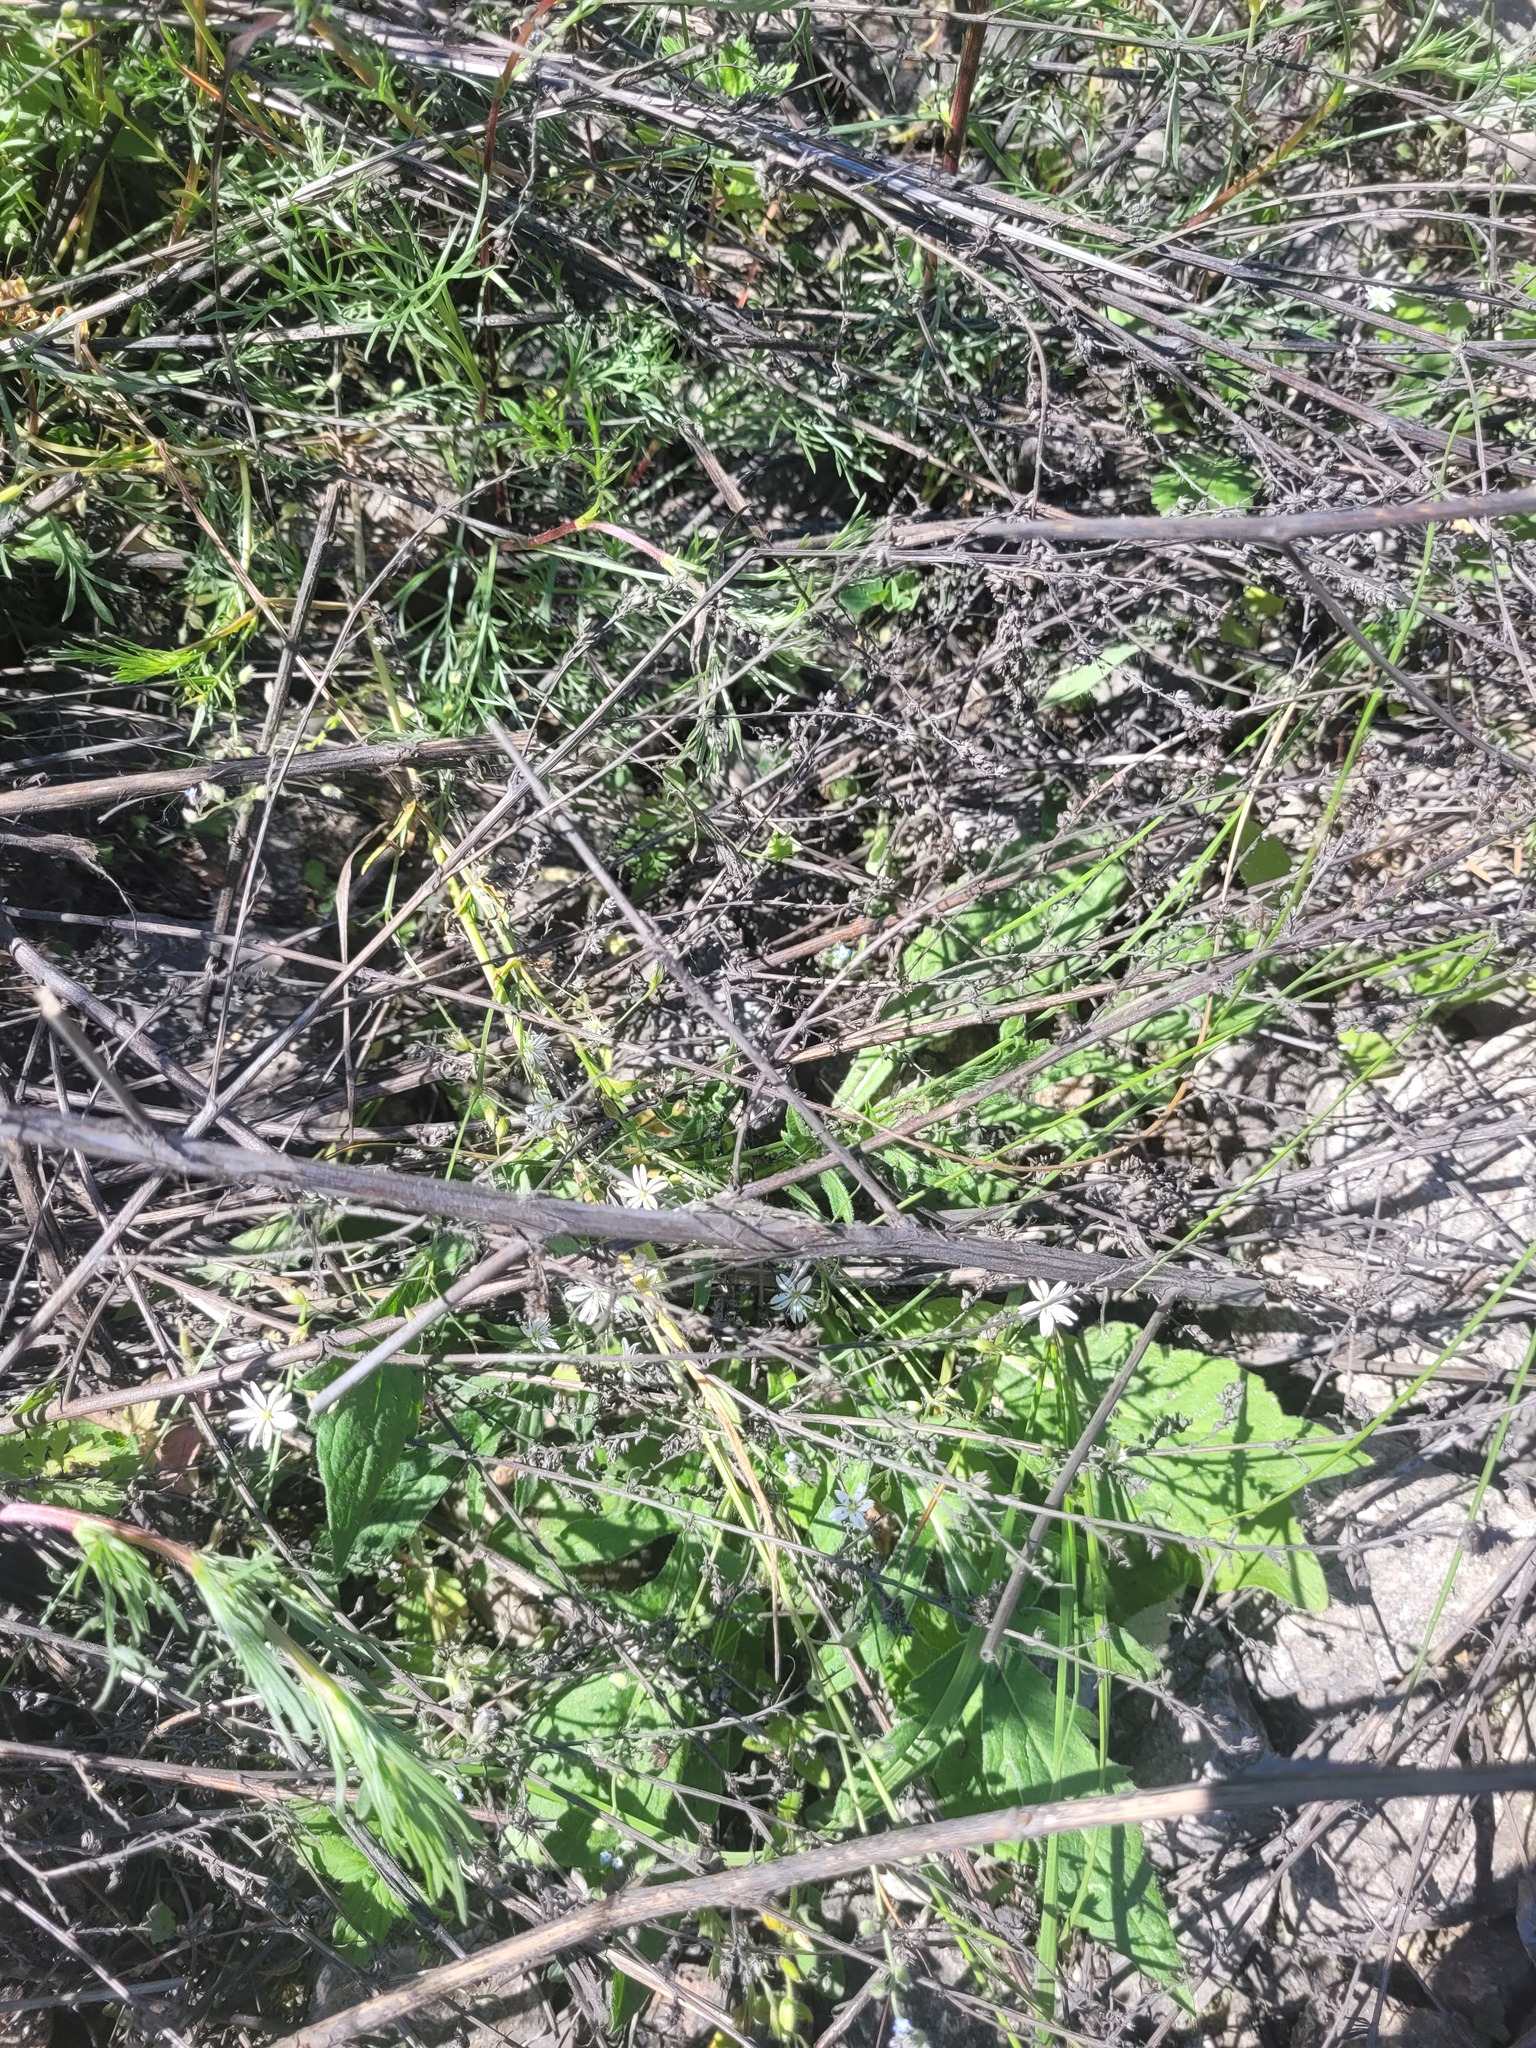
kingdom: Plantae
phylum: Tracheophyta
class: Magnoliopsida
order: Caryophyllales
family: Caryophyllaceae
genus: Stellaria
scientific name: Stellaria graminea
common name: Grass-like starwort
